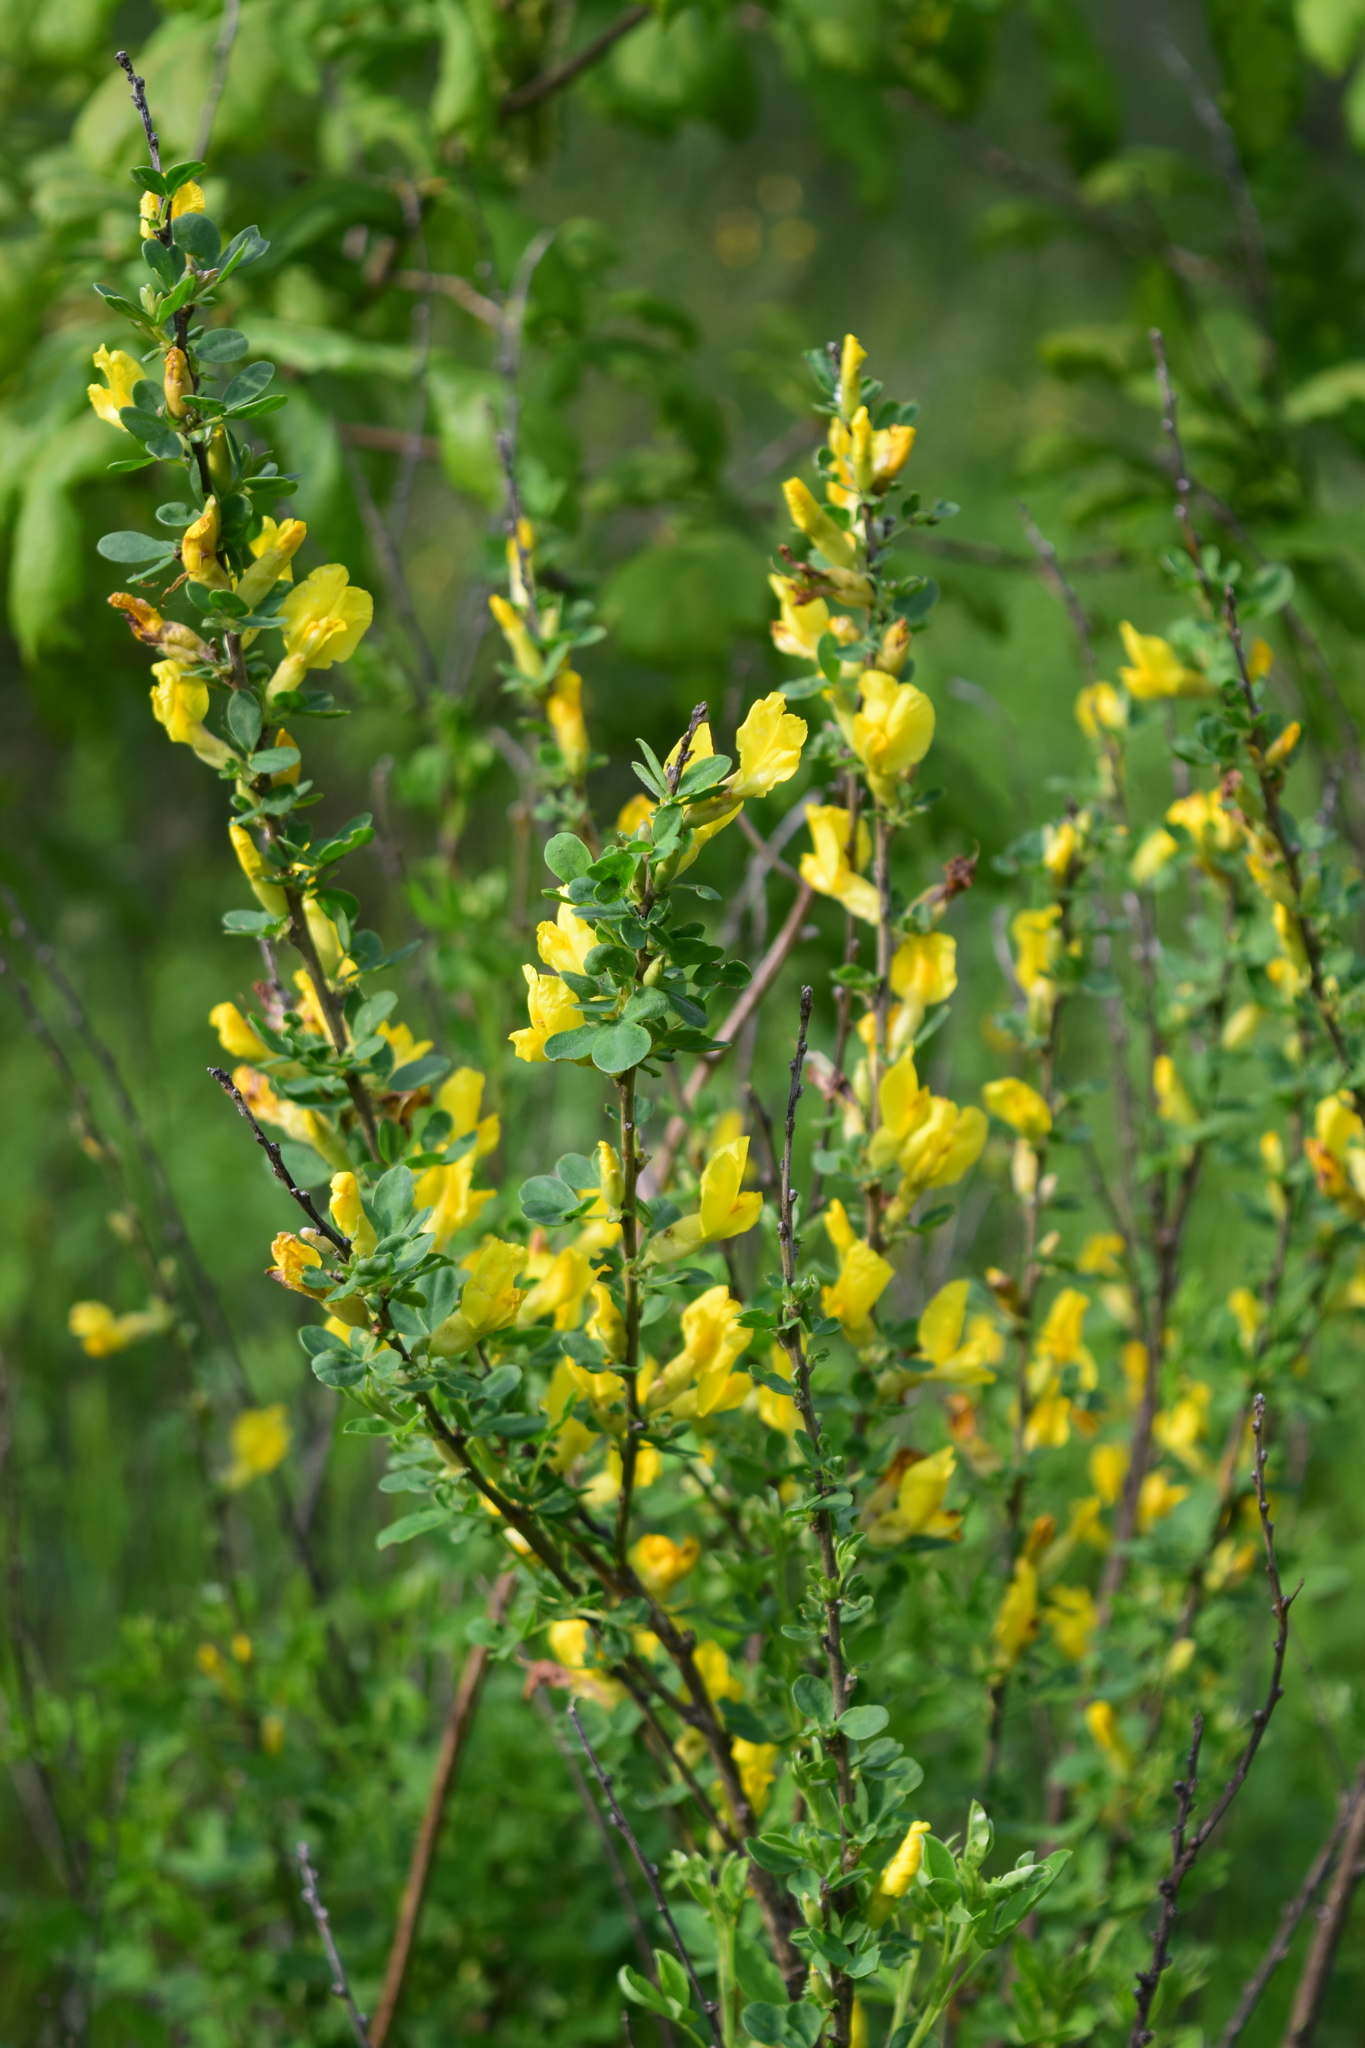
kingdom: Plantae
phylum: Tracheophyta
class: Magnoliopsida
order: Fabales
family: Fabaceae
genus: Chamaecytisus
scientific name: Chamaecytisus ruthenicus
